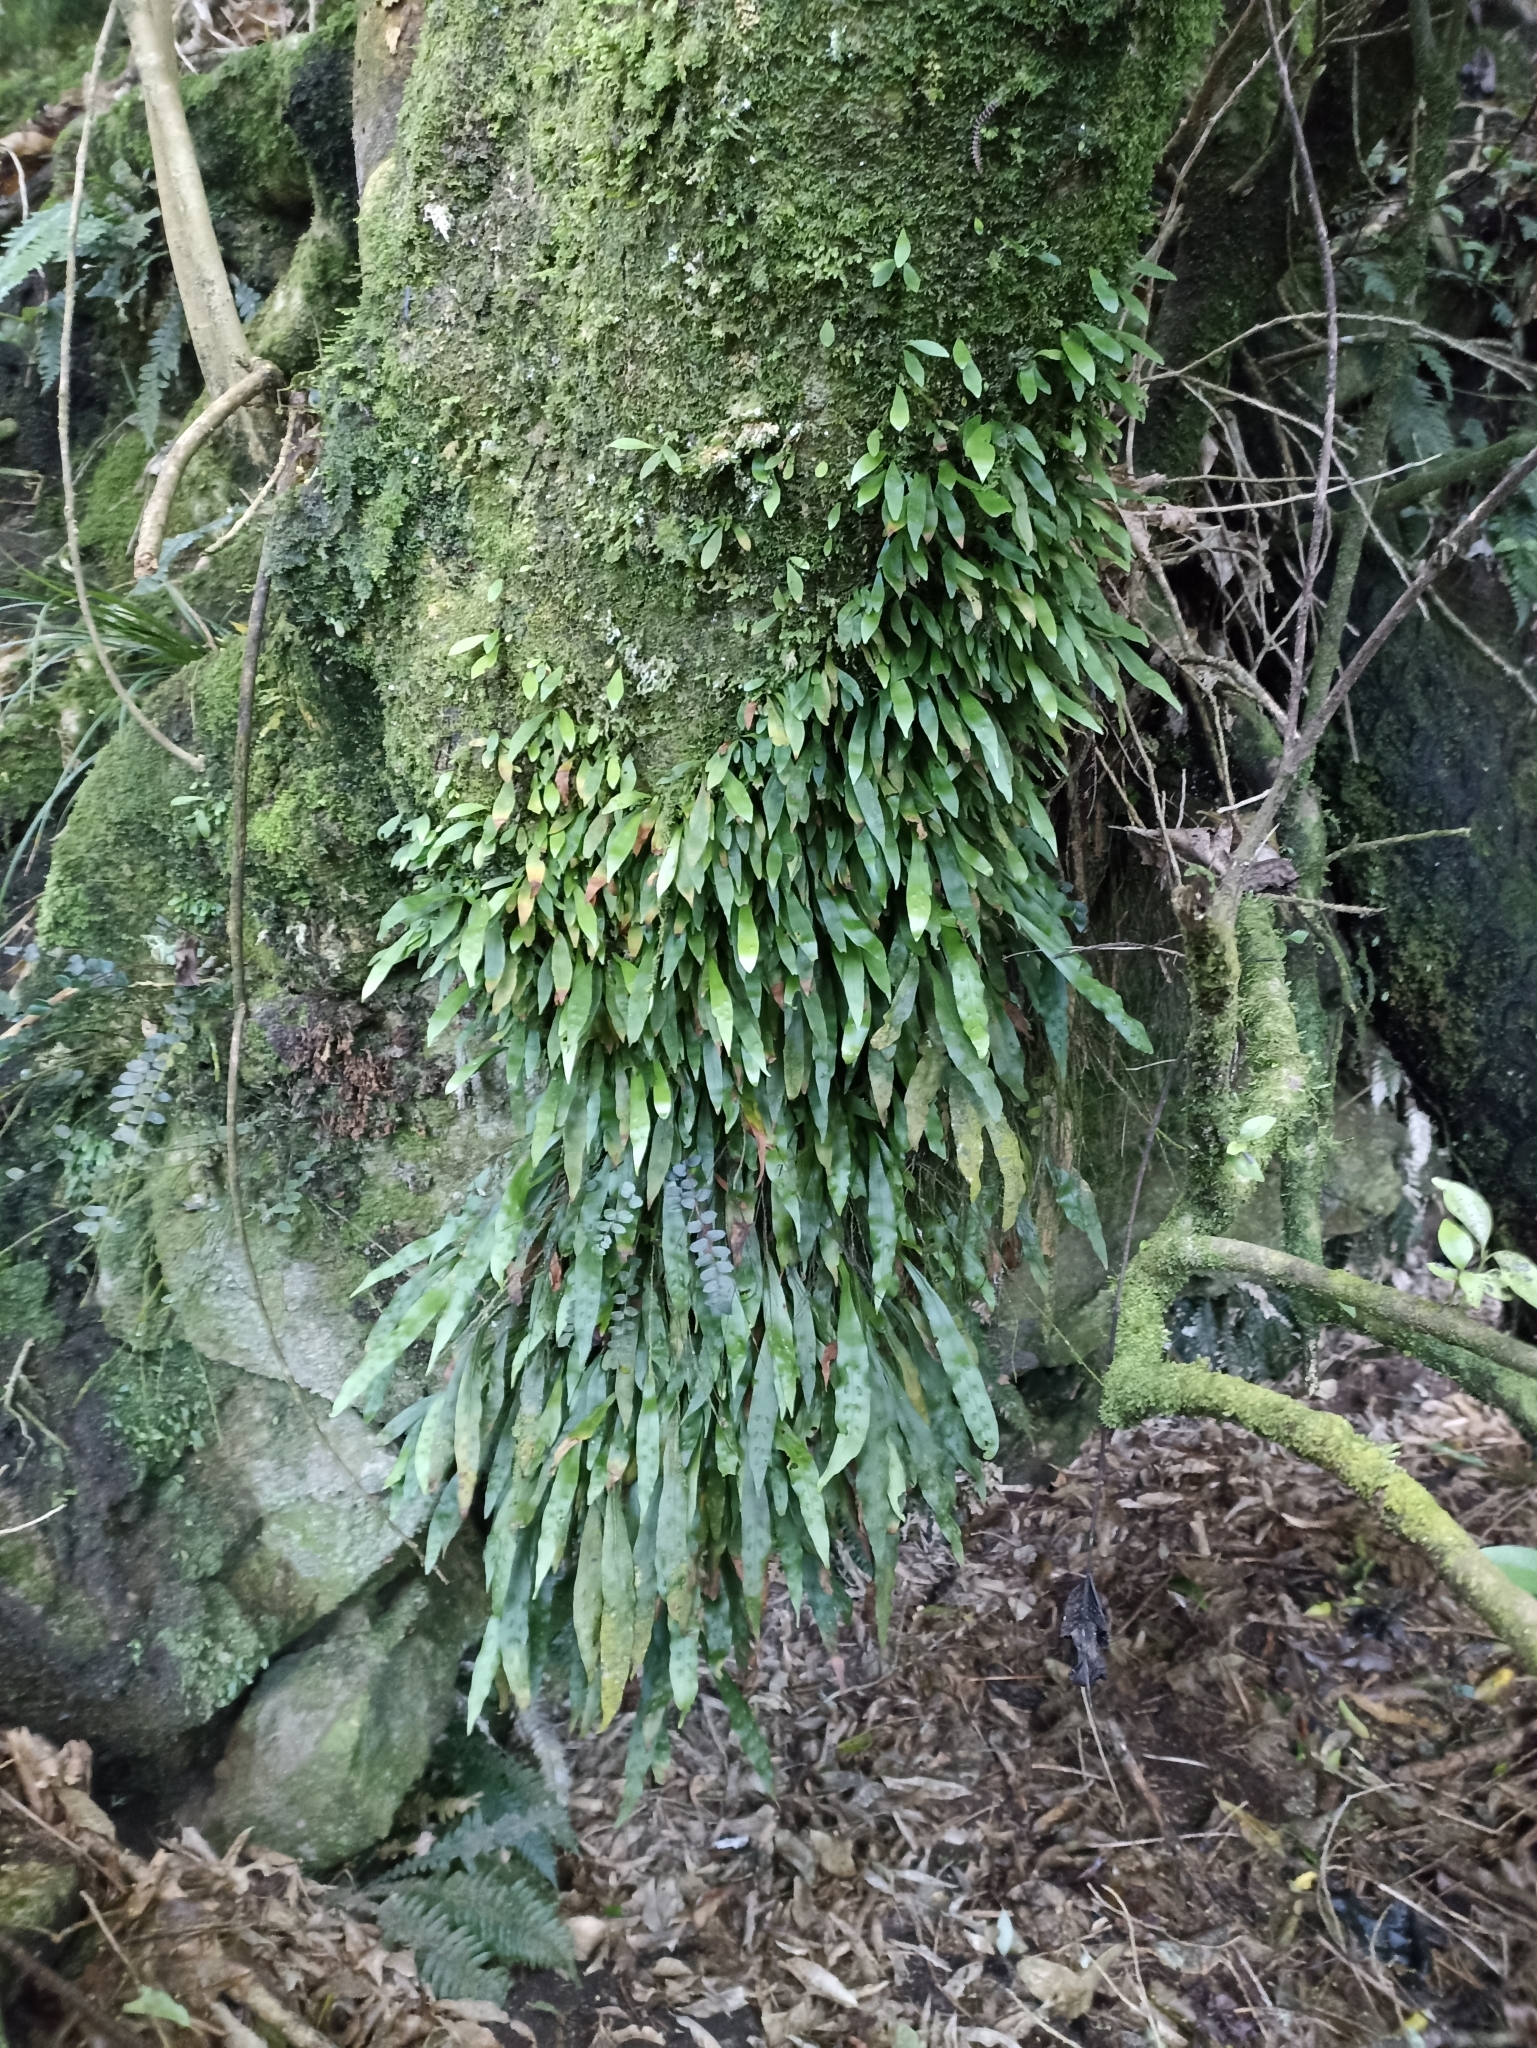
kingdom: Plantae
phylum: Tracheophyta
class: Polypodiopsida
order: Polypodiales
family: Polypodiaceae
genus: Loxogramme
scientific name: Loxogramme dictyopteris
